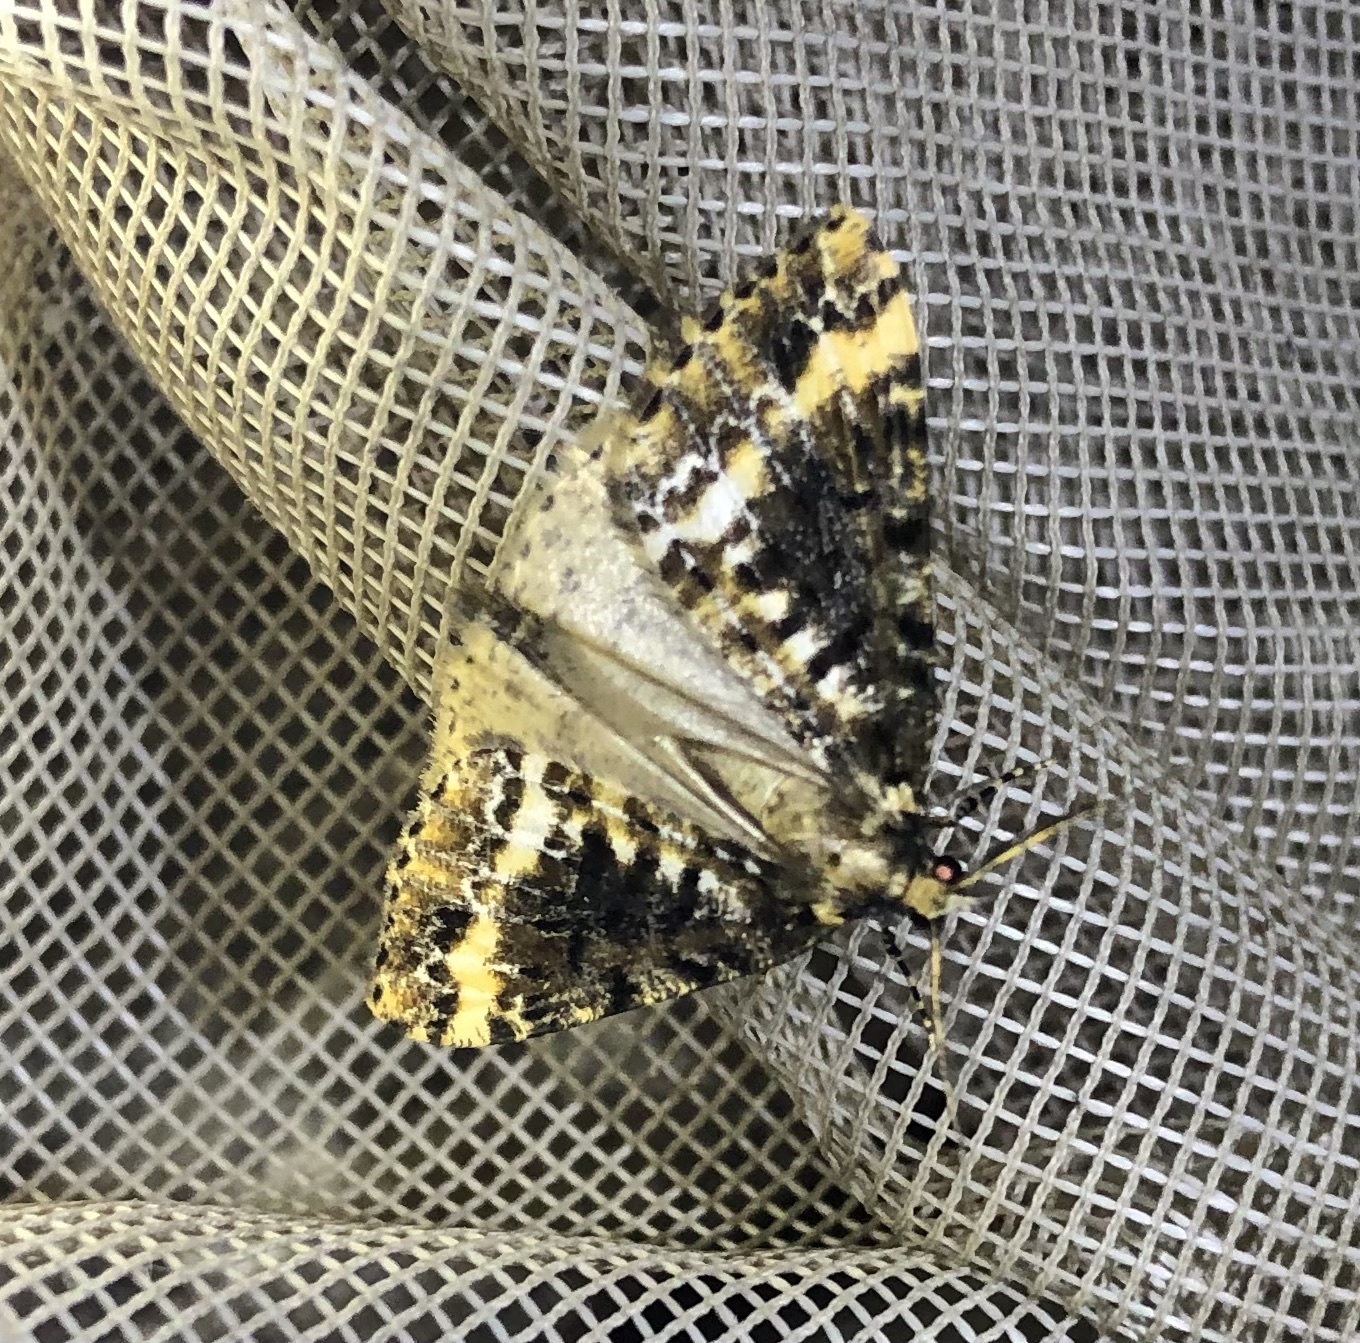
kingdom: Animalia
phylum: Arthropoda
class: Insecta
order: Lepidoptera
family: Geometridae
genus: Pseudocoremia
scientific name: Pseudocoremia leucelaea
